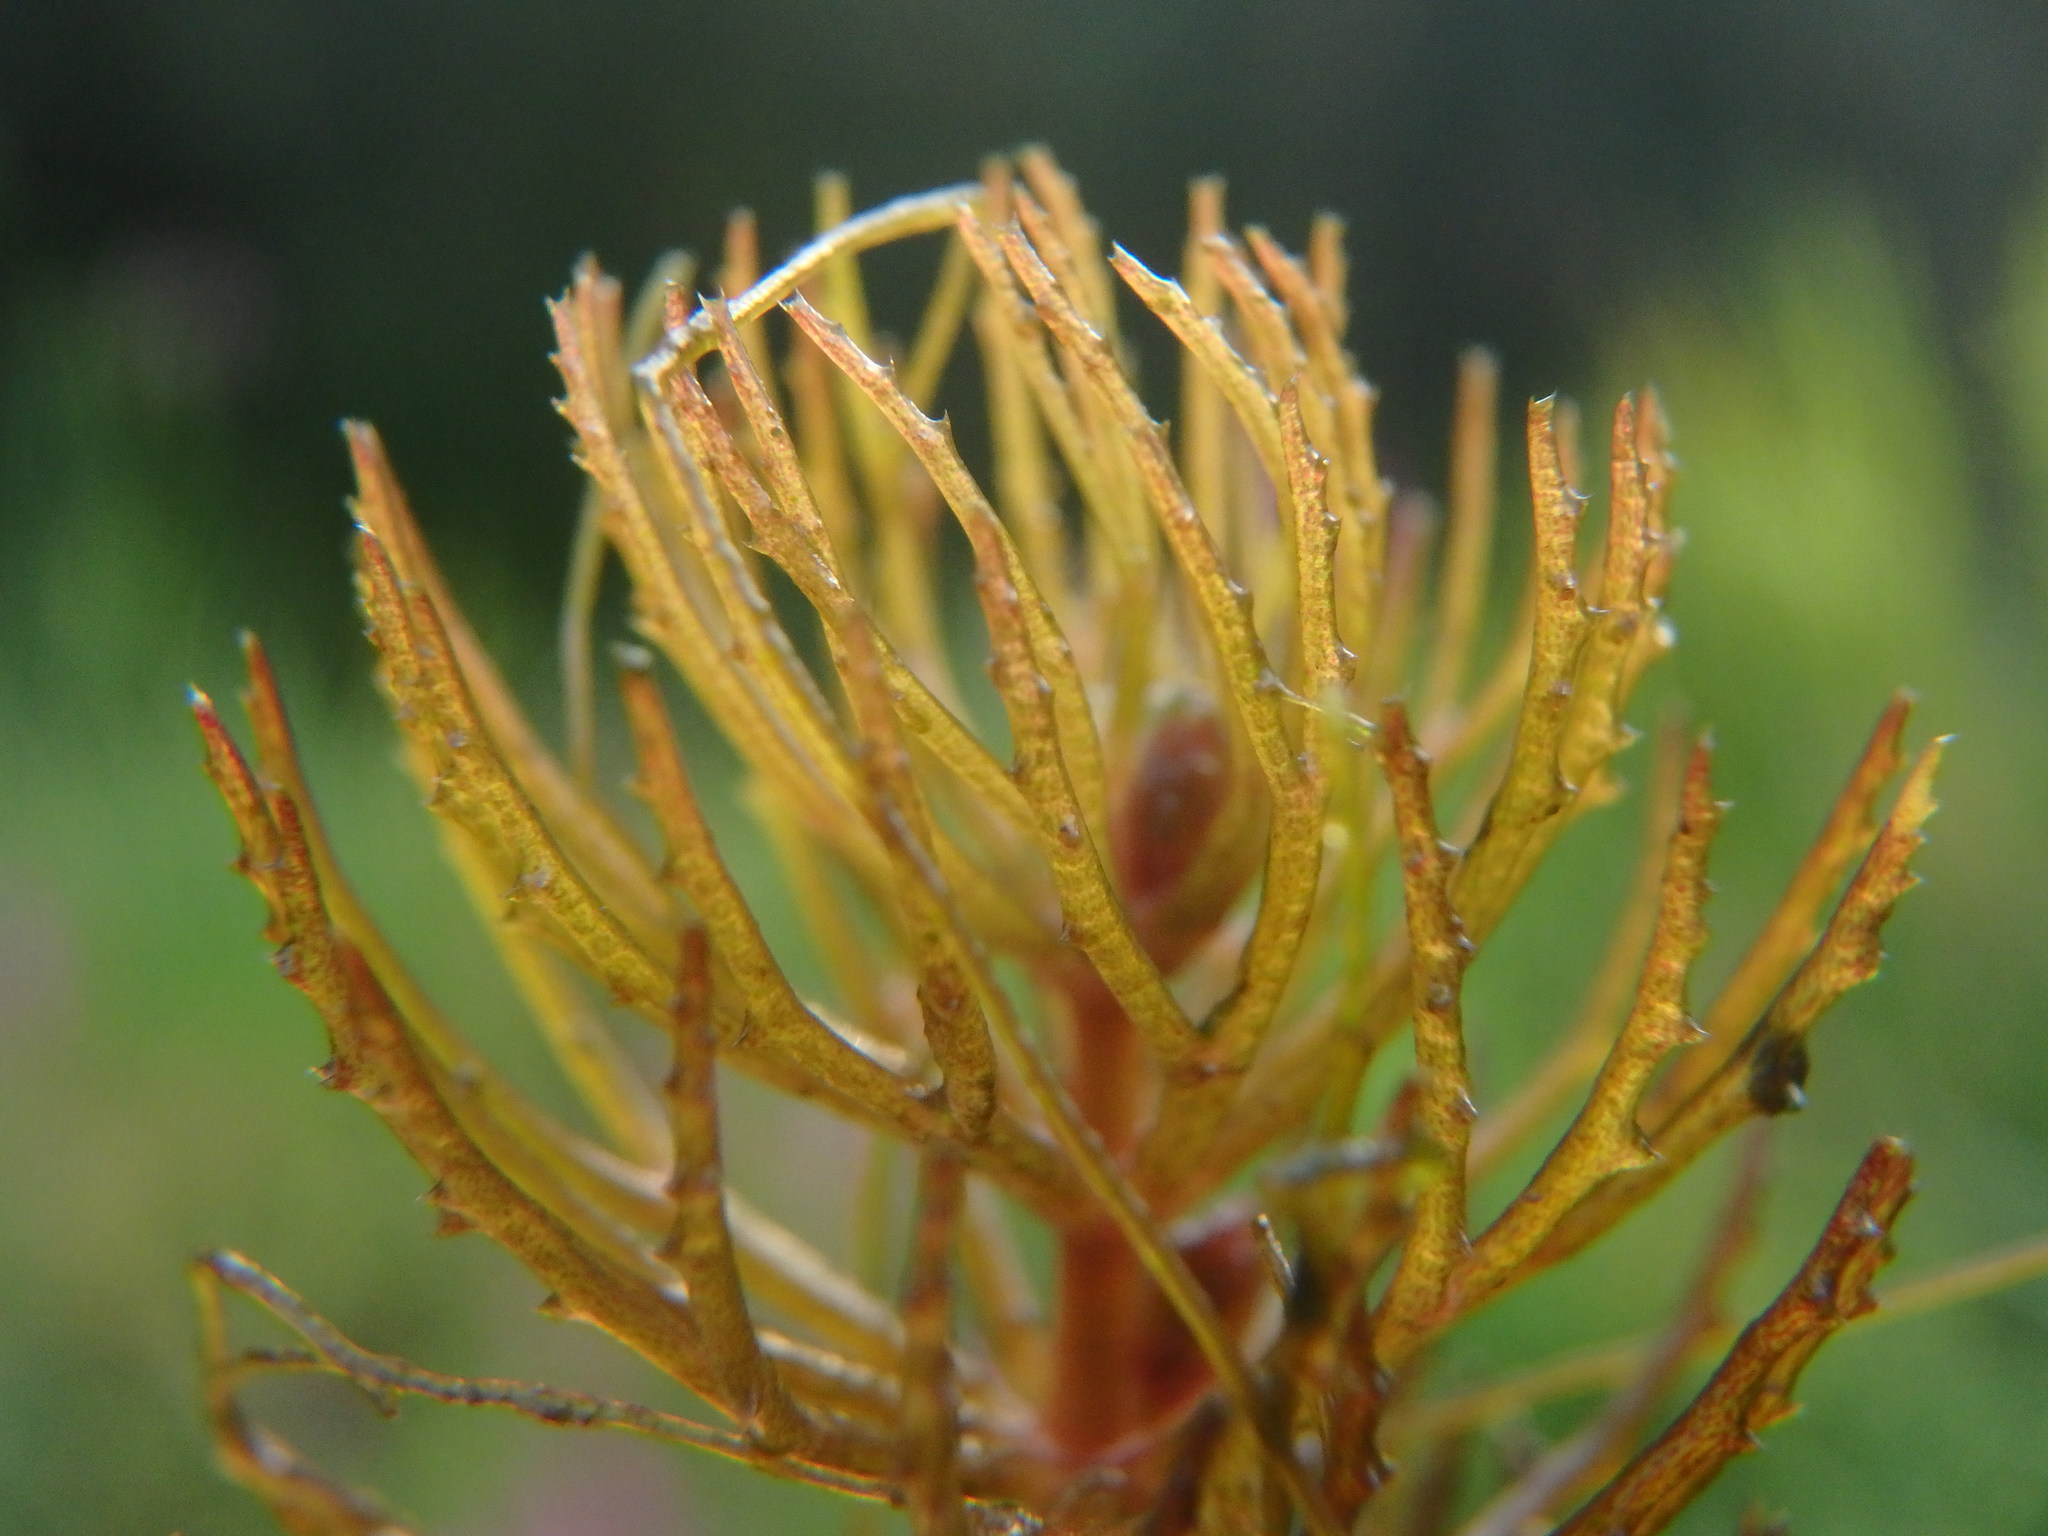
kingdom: Plantae
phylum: Tracheophyta
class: Magnoliopsida
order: Ceratophyllales
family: Ceratophyllaceae
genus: Ceratophyllum
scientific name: Ceratophyllum demersum
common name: Rigid hornwort
